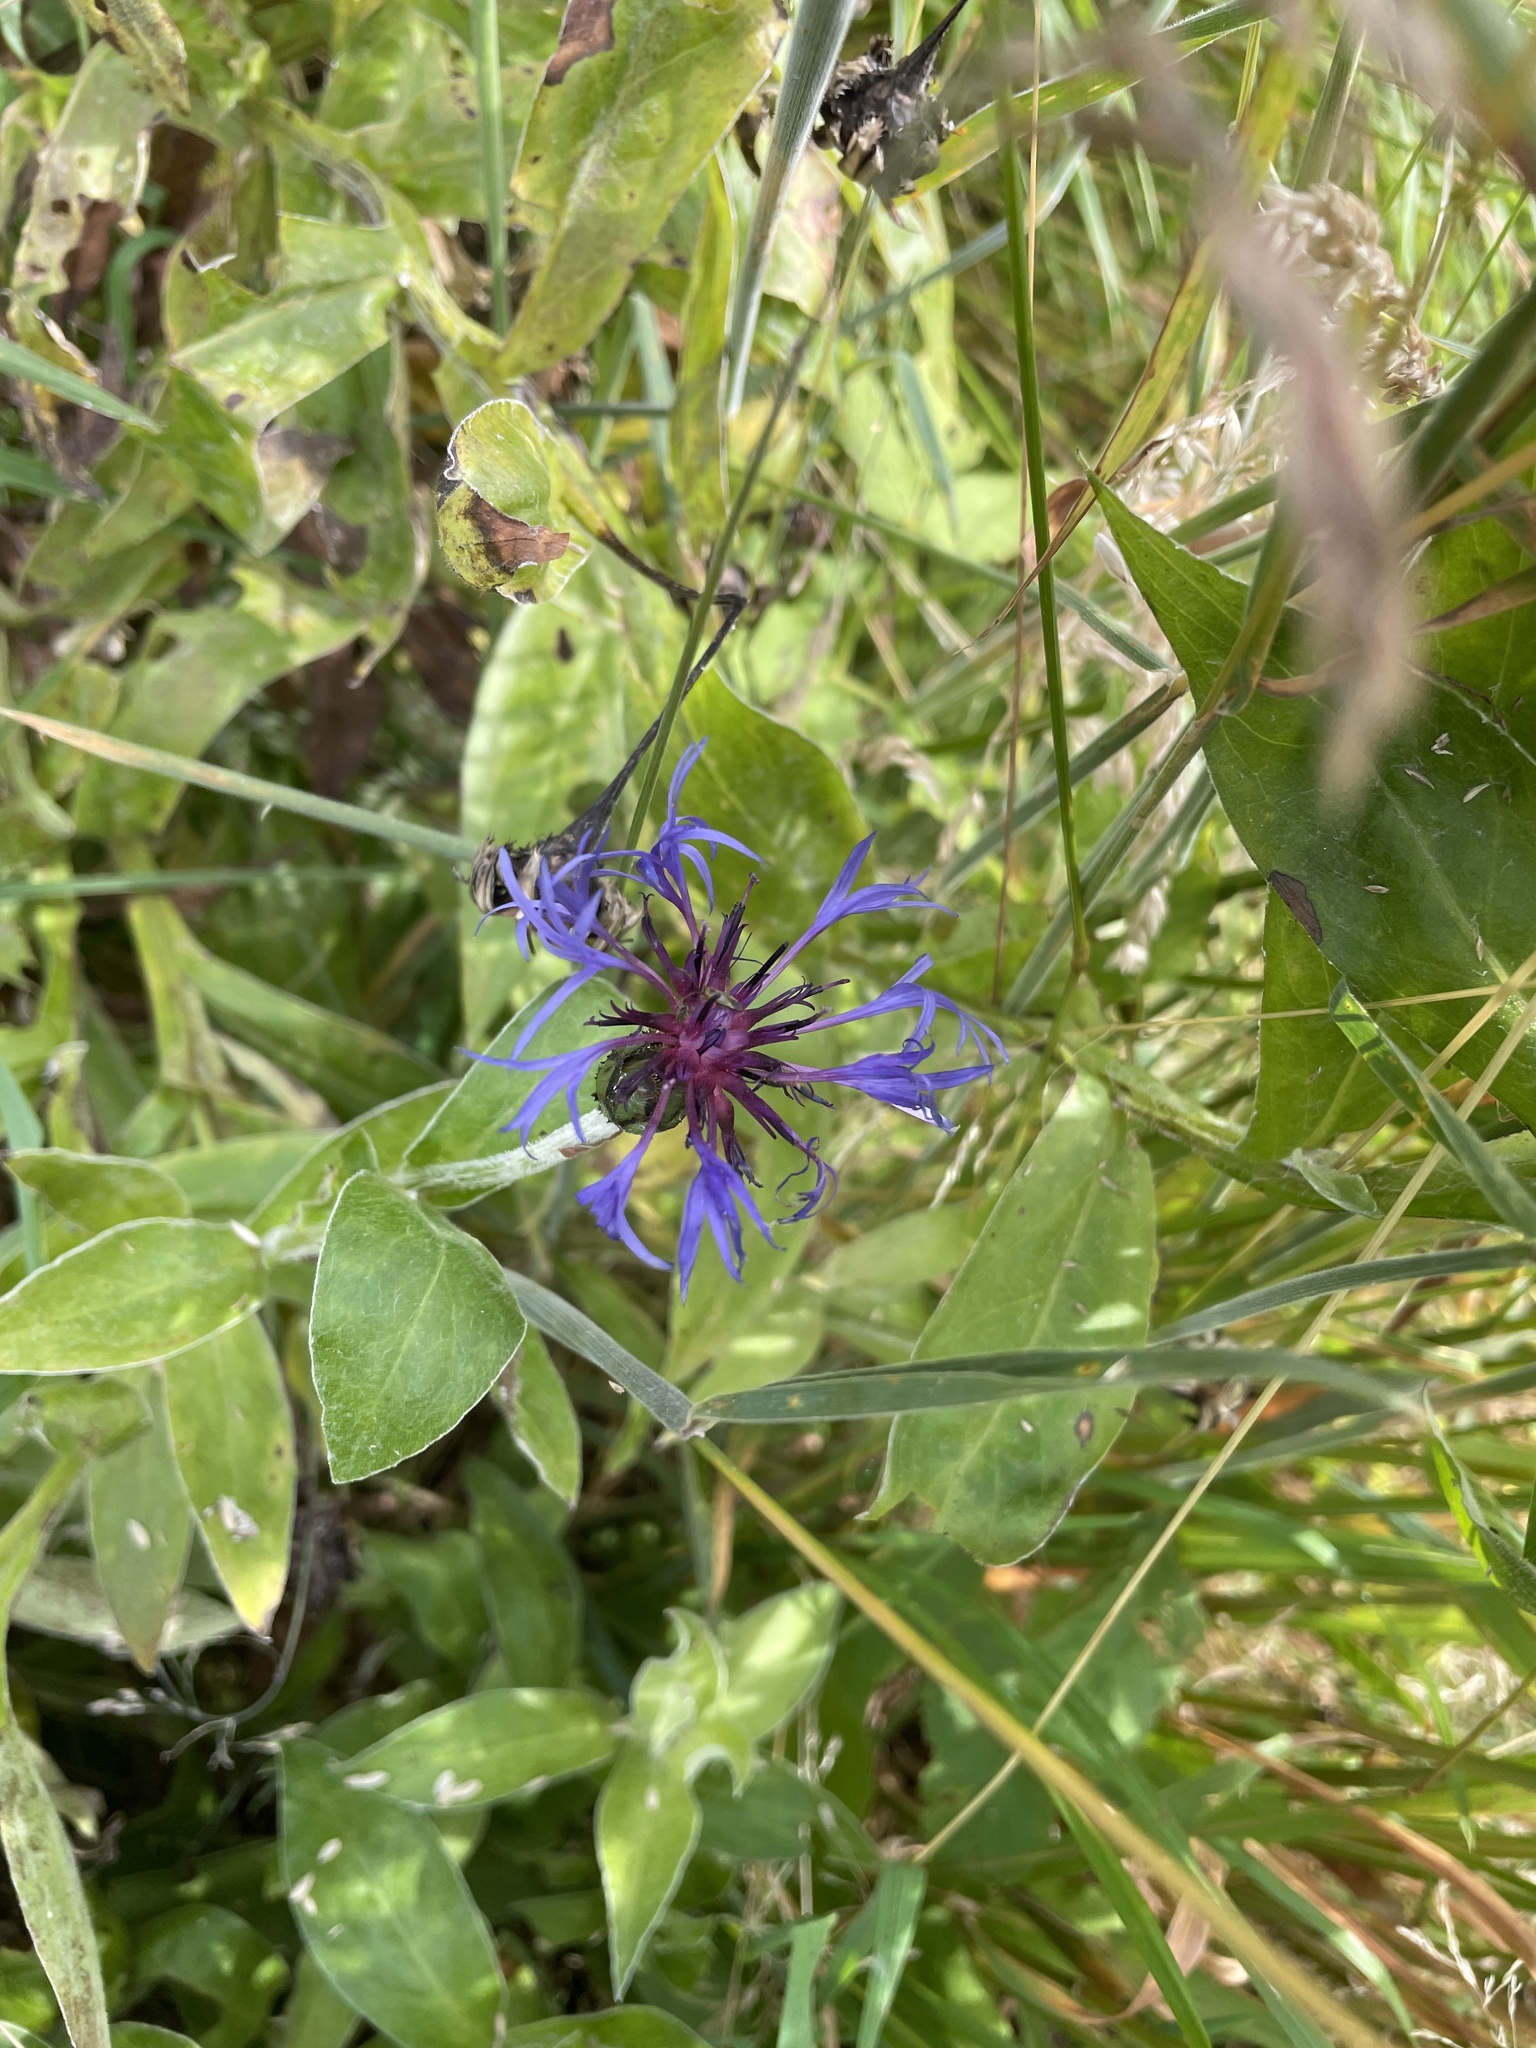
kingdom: Plantae
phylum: Tracheophyta
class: Magnoliopsida
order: Asterales
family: Asteraceae
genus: Centaurea
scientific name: Centaurea montana
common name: Perennial cornflower
